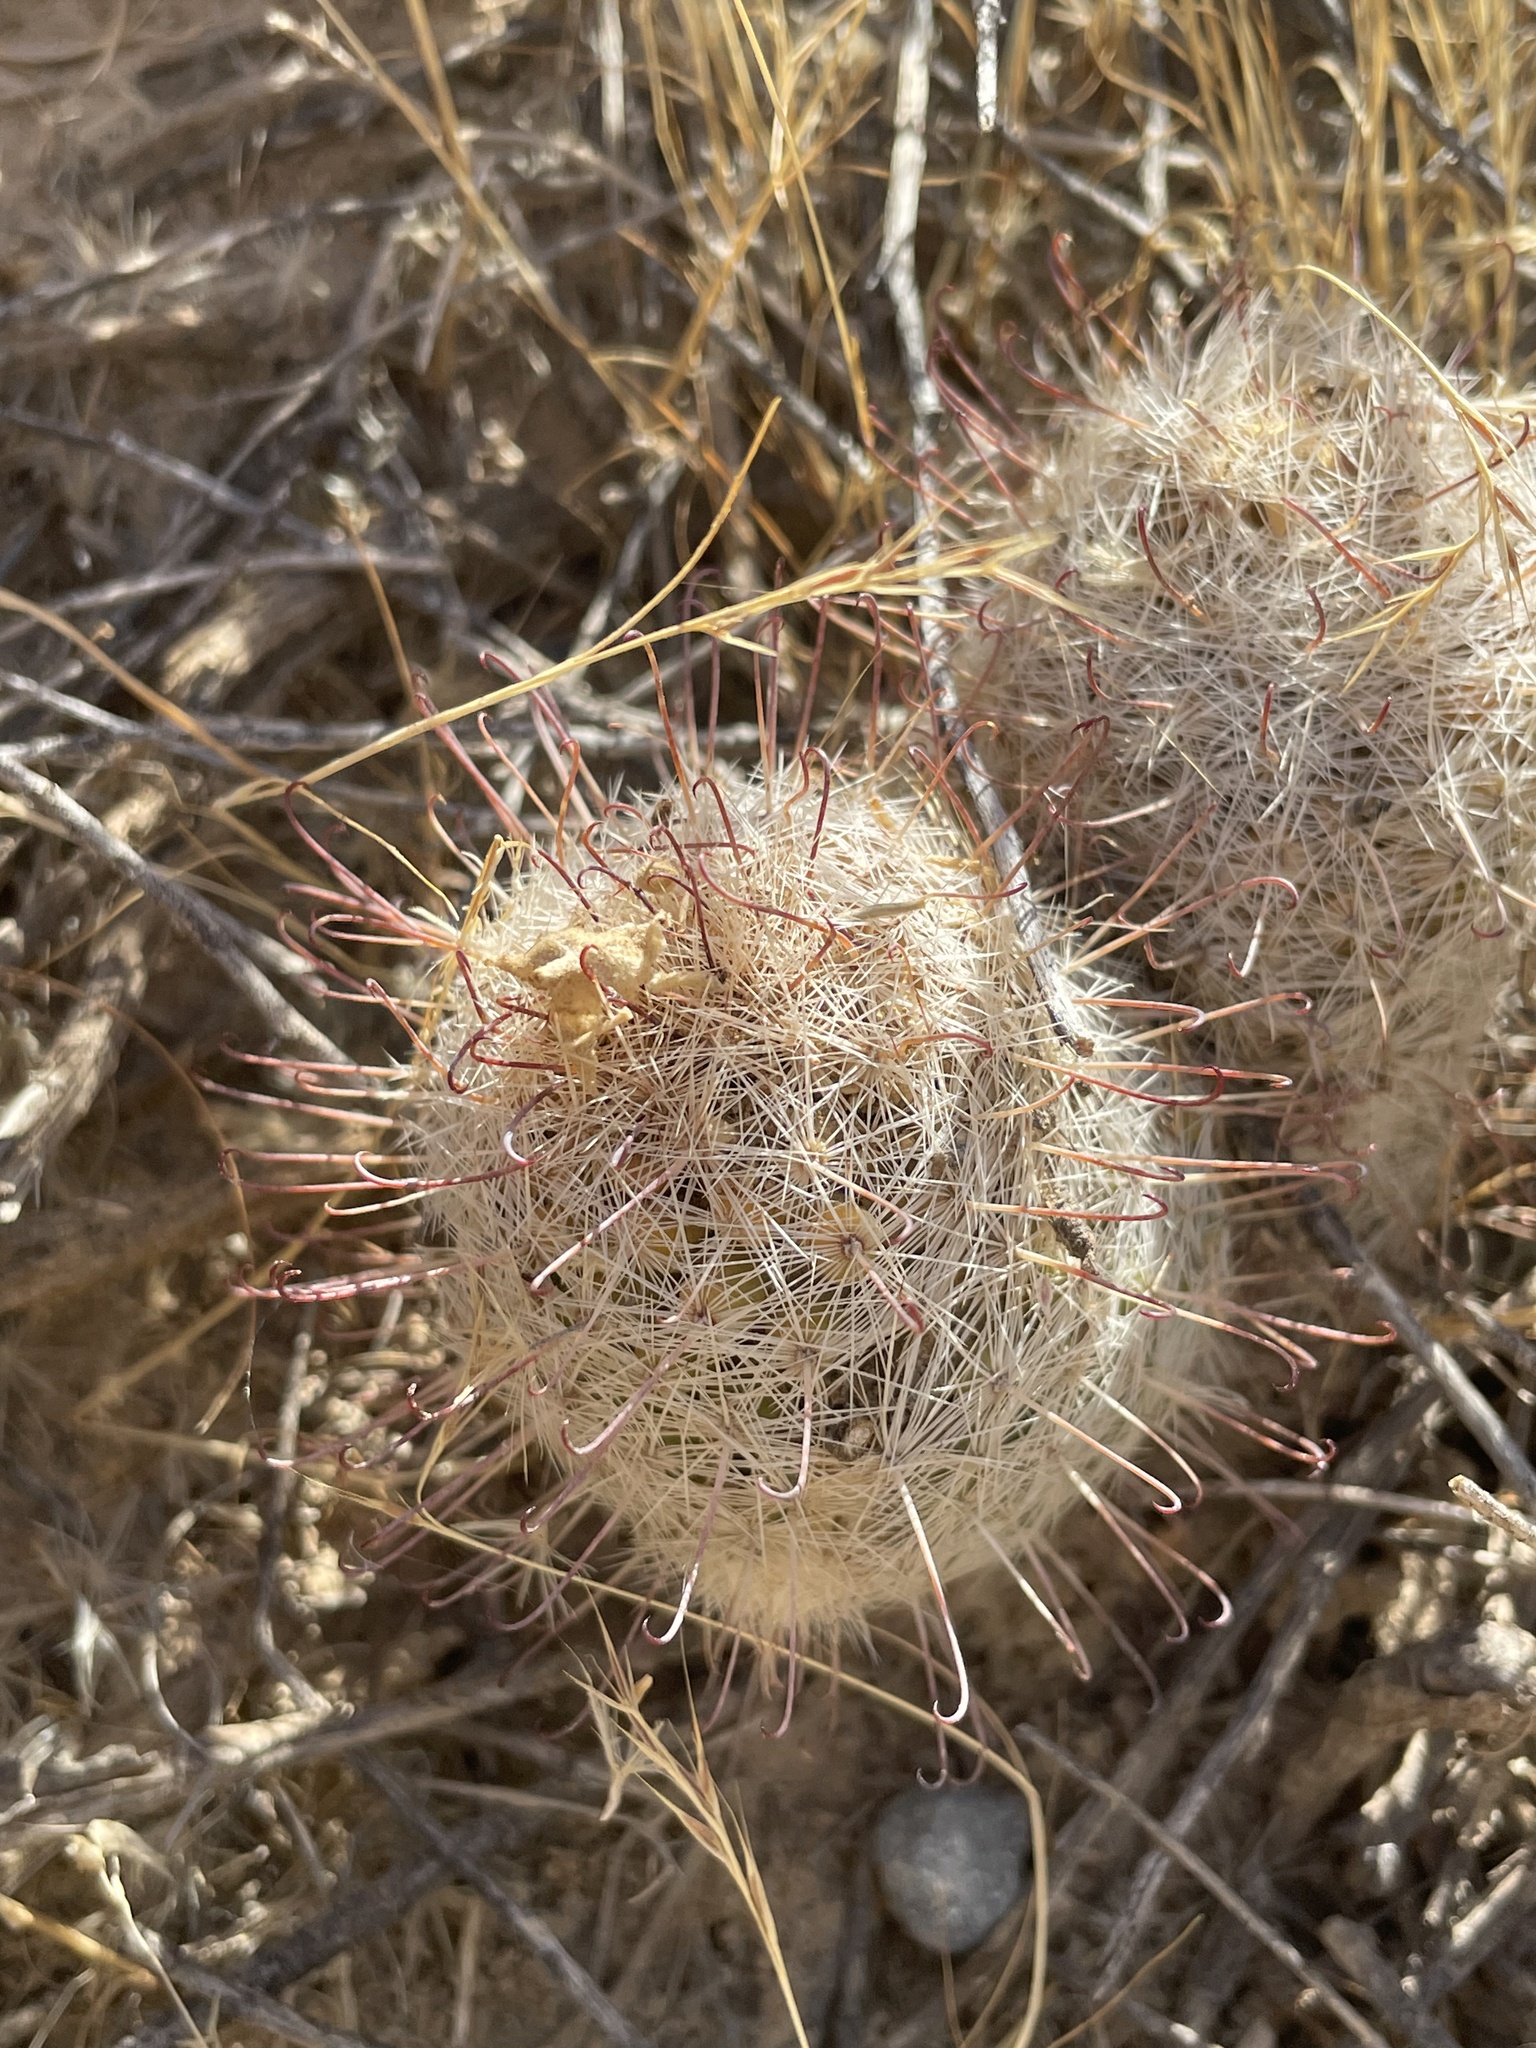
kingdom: Plantae
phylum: Tracheophyta
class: Magnoliopsida
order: Caryophyllales
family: Cactaceae
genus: Cochemiea
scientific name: Cochemiea grahamii
